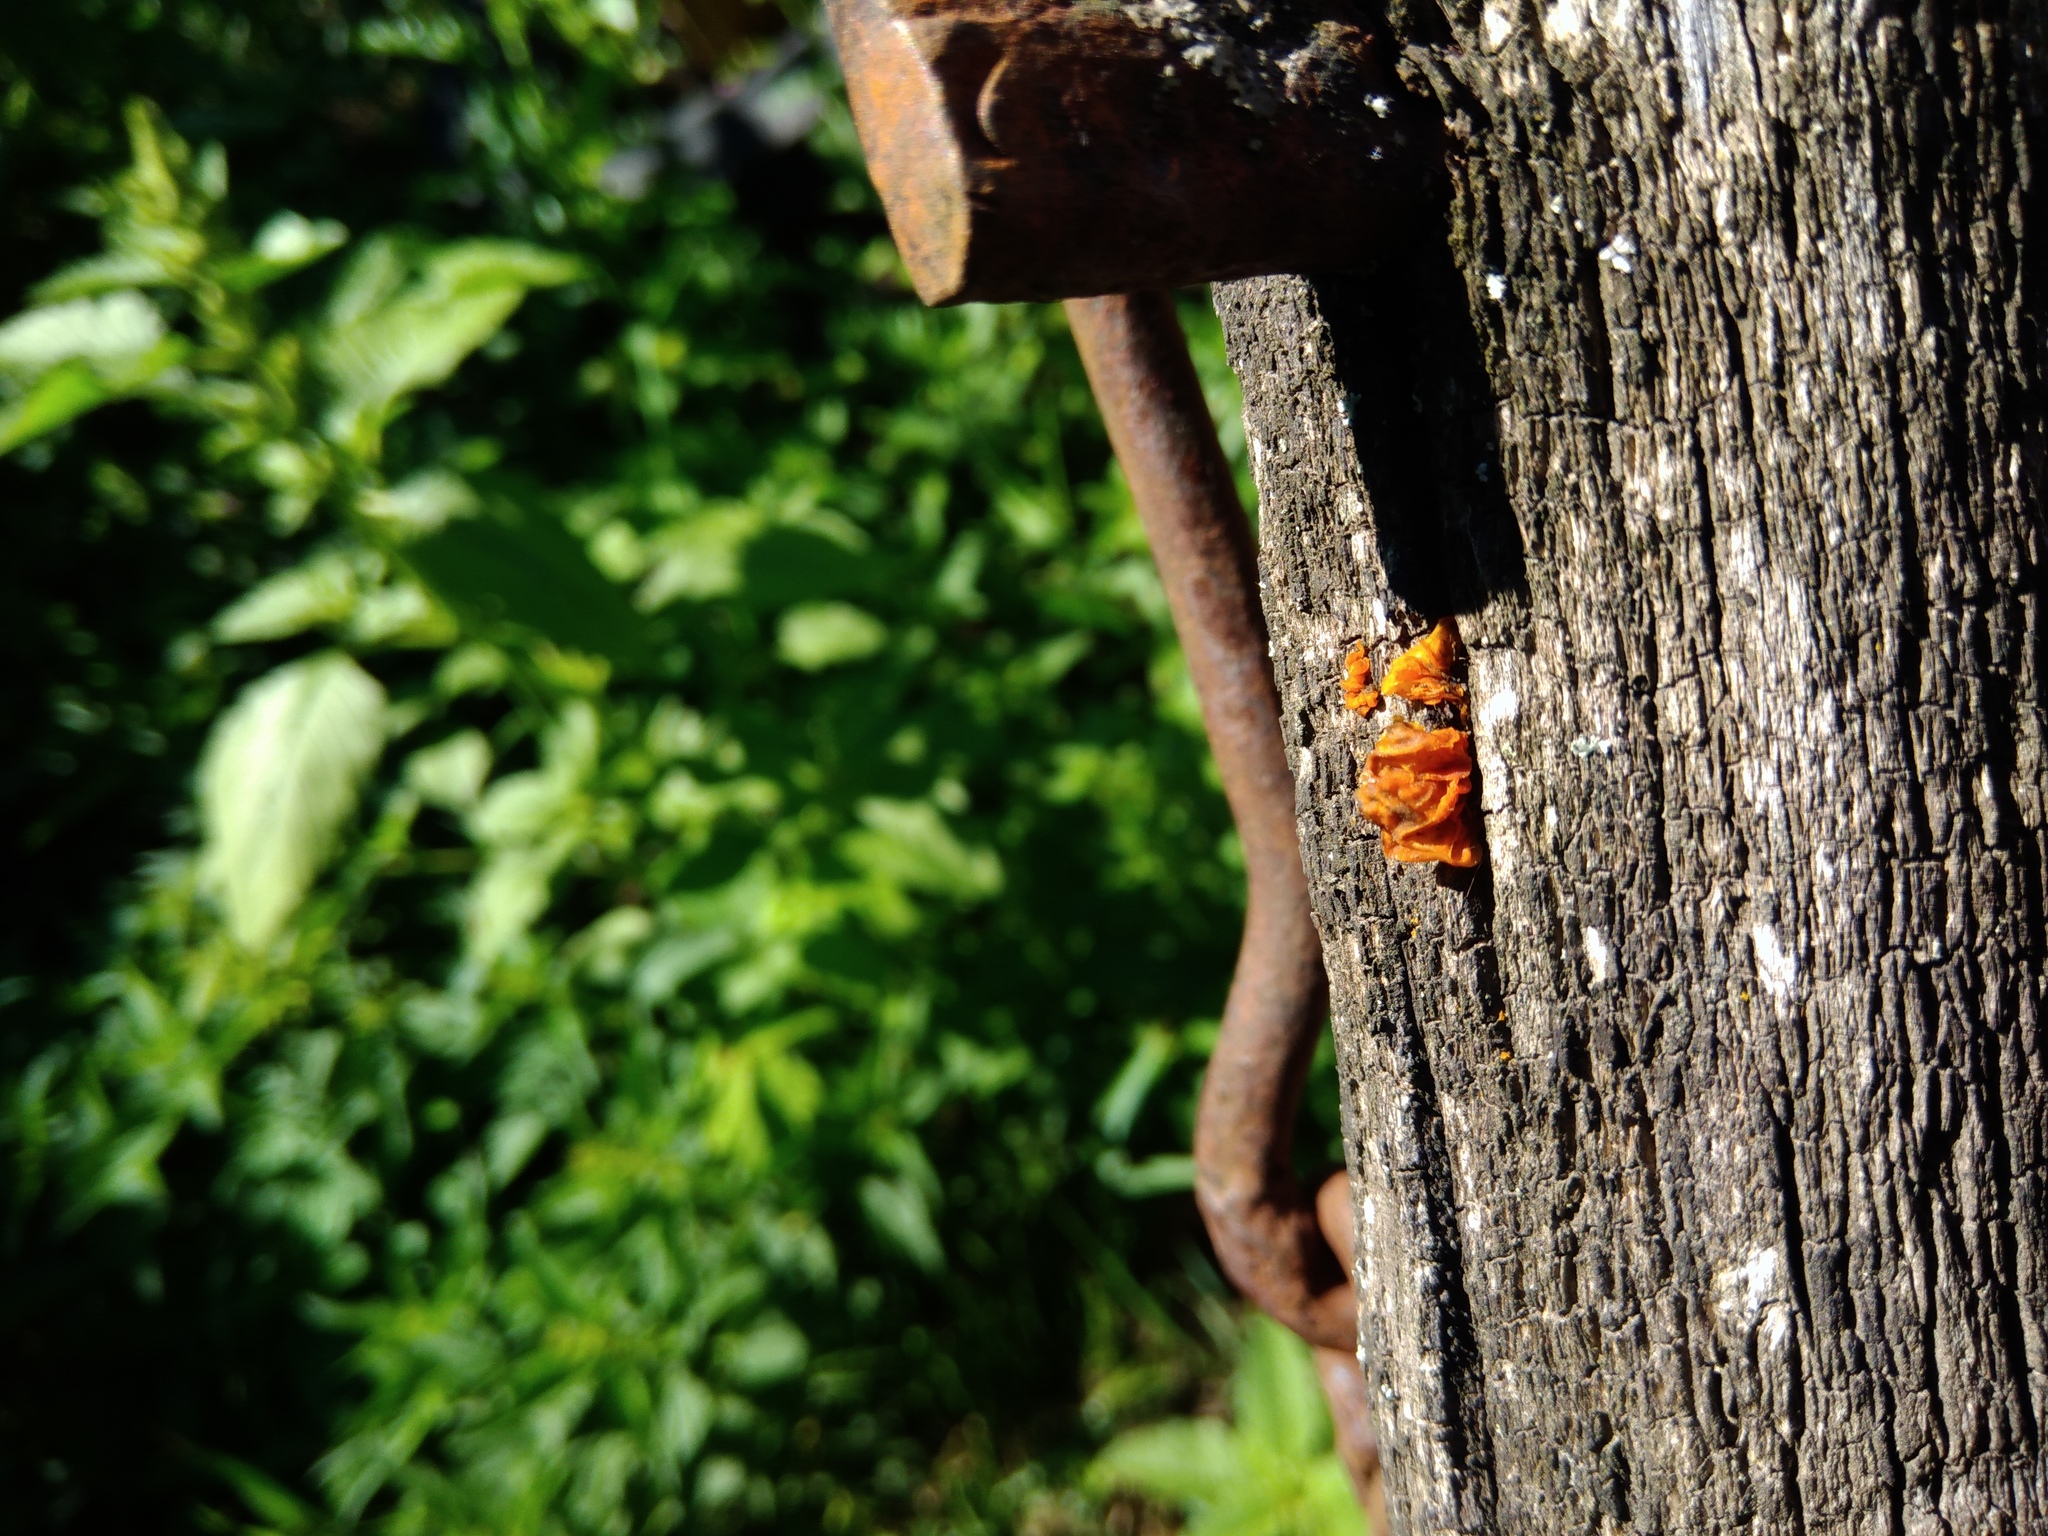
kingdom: Fungi
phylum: Basidiomycota
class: Tremellomycetes
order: Tremellales
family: Tremellaceae
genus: Tremella
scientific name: Tremella mesenterica
